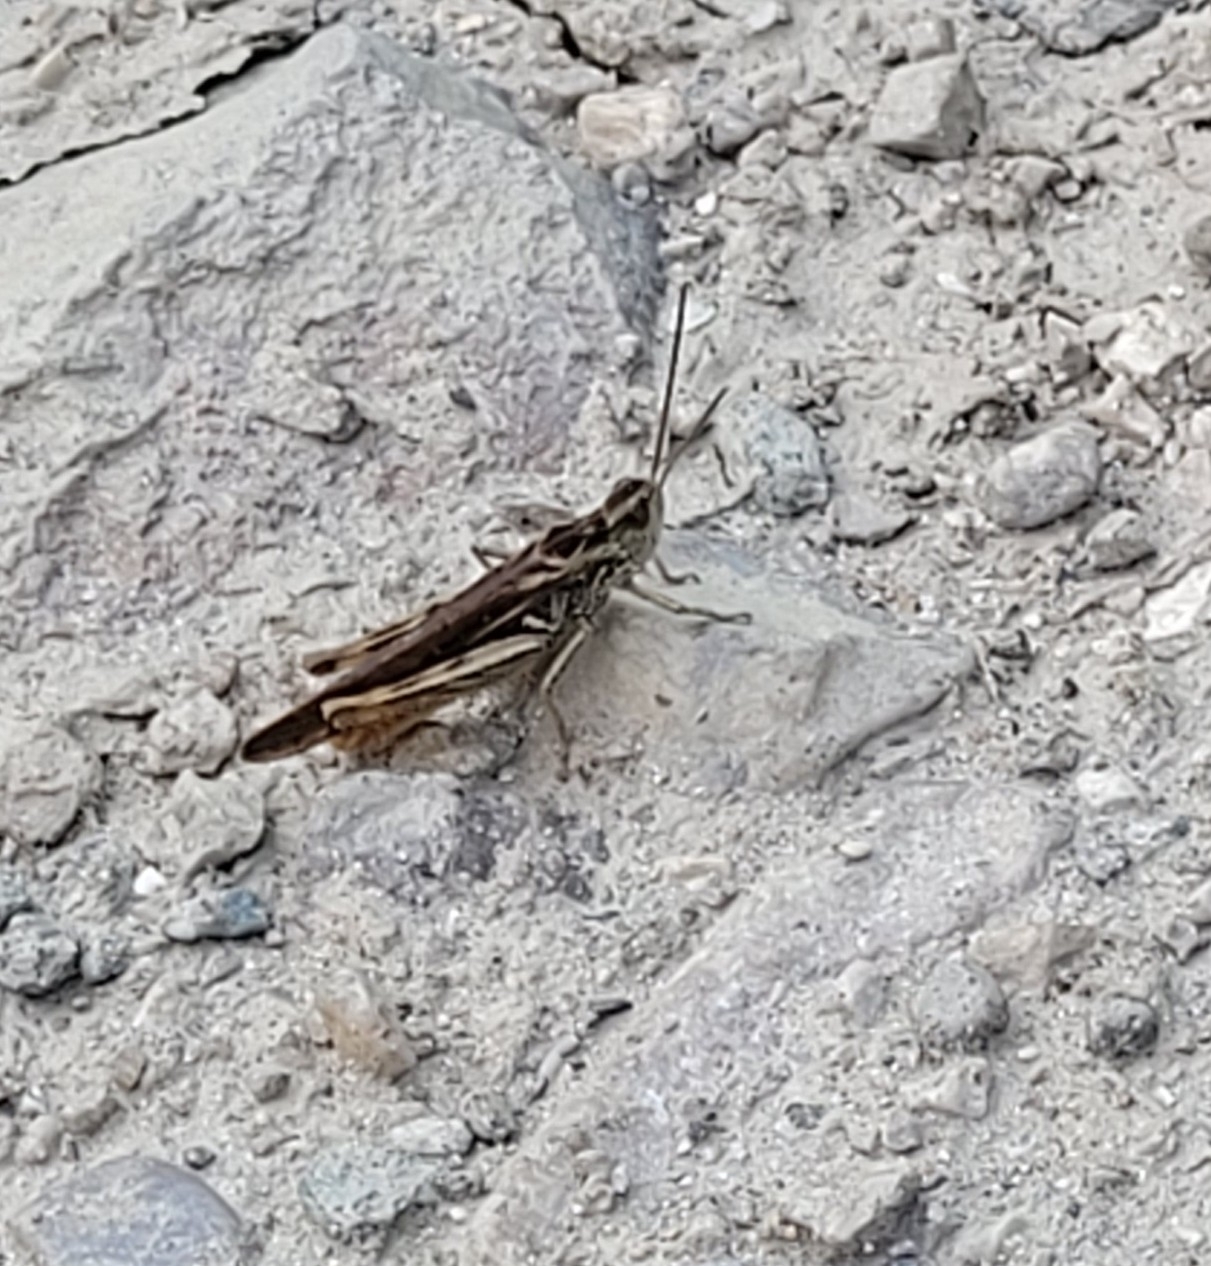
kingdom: Animalia
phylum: Arthropoda
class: Insecta
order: Orthoptera
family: Acrididae
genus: Chorthippus
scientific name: Chorthippus brunneus
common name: Field grasshopper
